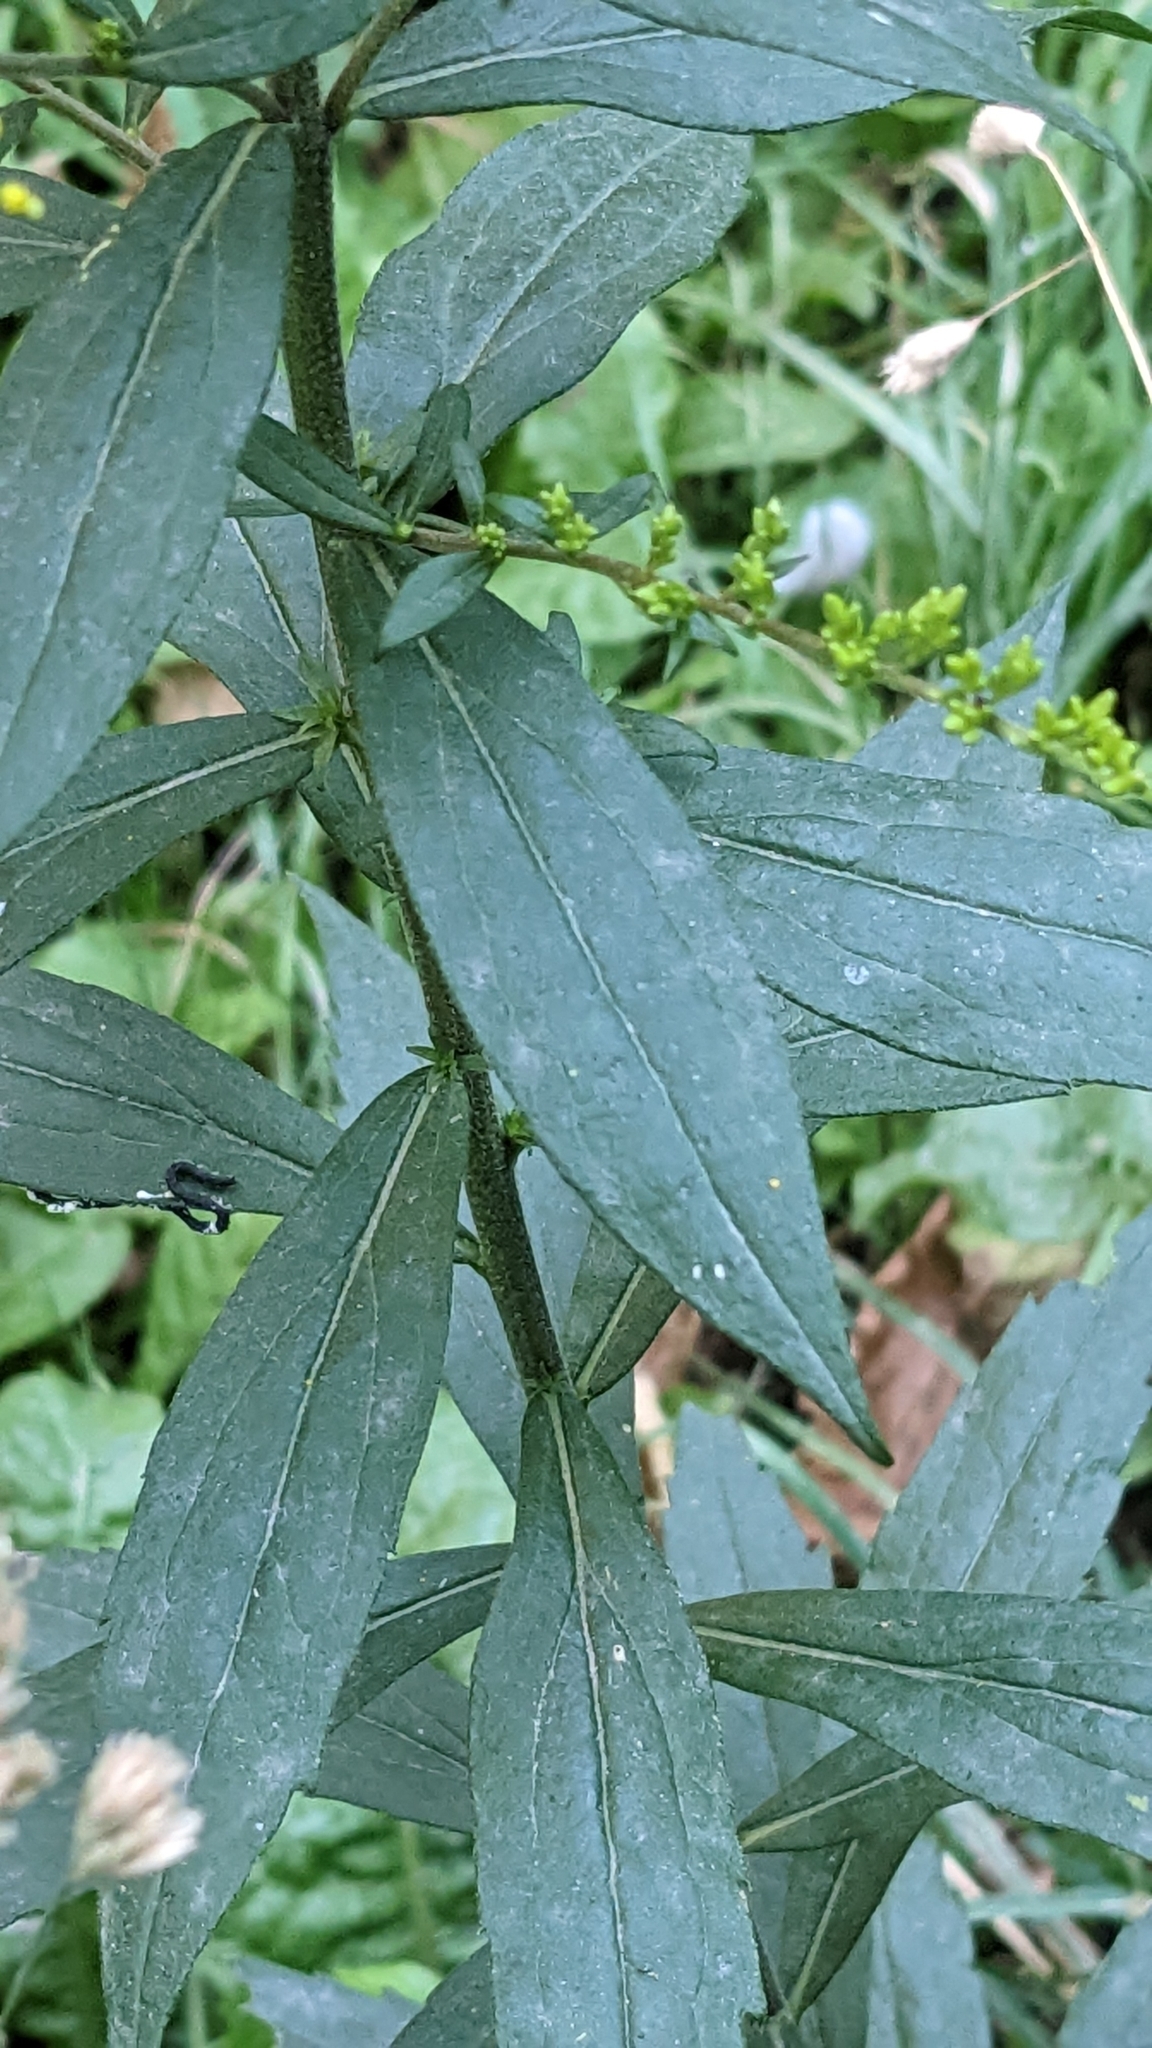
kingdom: Plantae
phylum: Tracheophyta
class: Magnoliopsida
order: Asterales
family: Asteraceae
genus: Solidago
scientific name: Solidago canadensis
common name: Canada goldenrod
